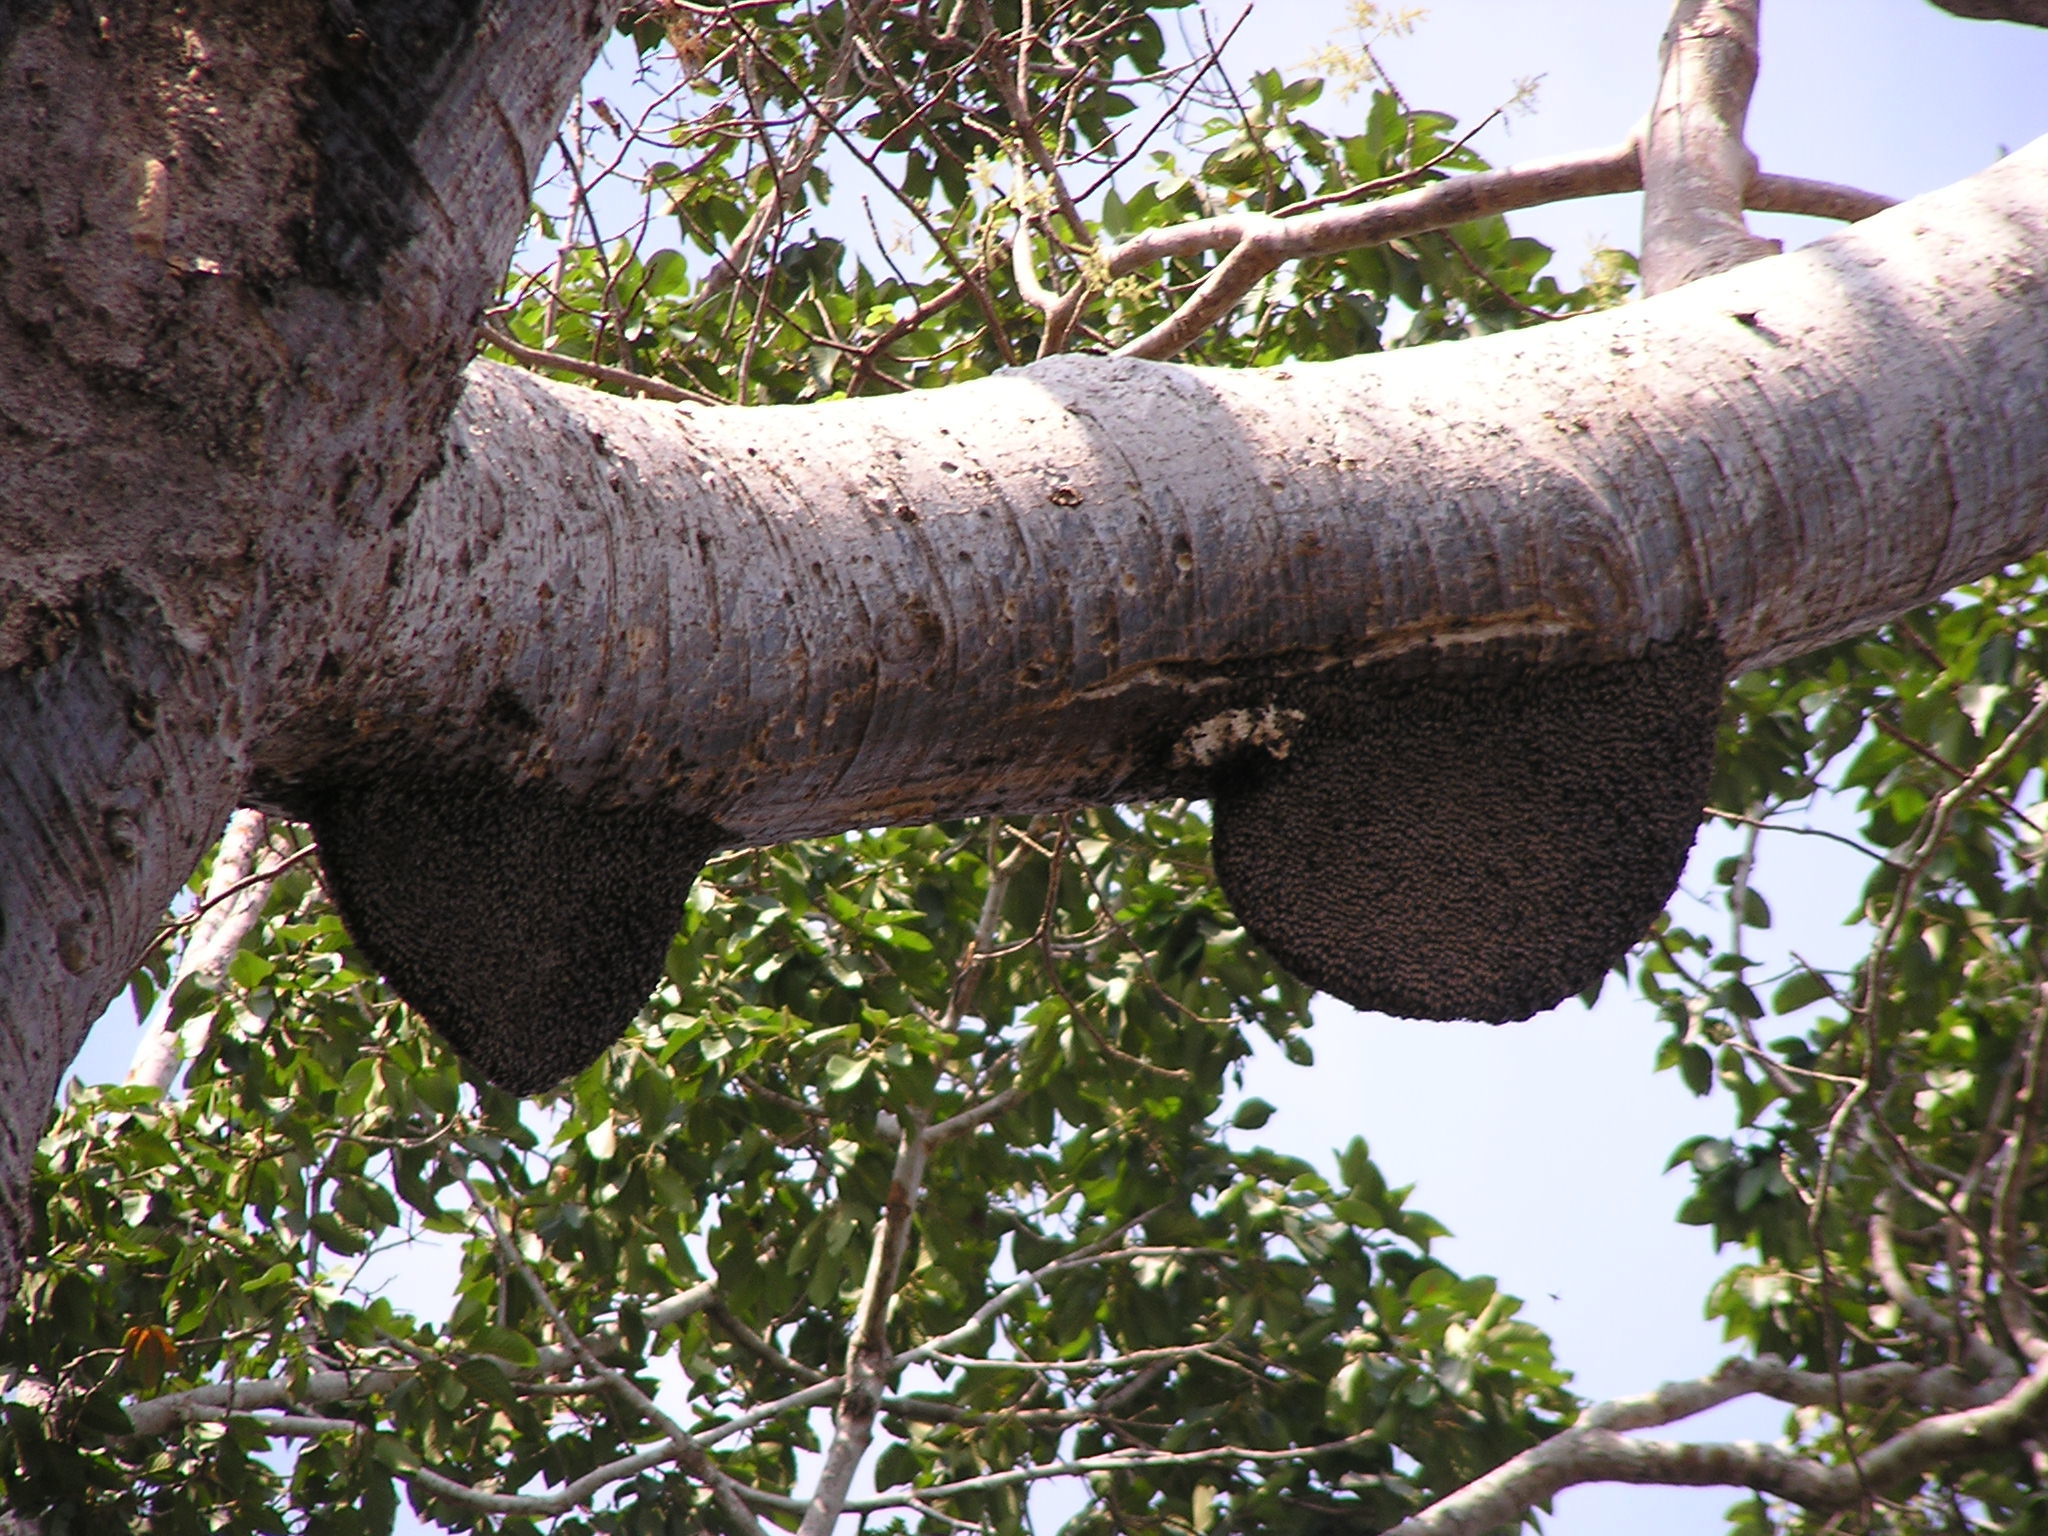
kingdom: Animalia
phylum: Arthropoda
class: Insecta
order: Hymenoptera
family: Apidae
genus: Apis
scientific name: Apis dorsata
